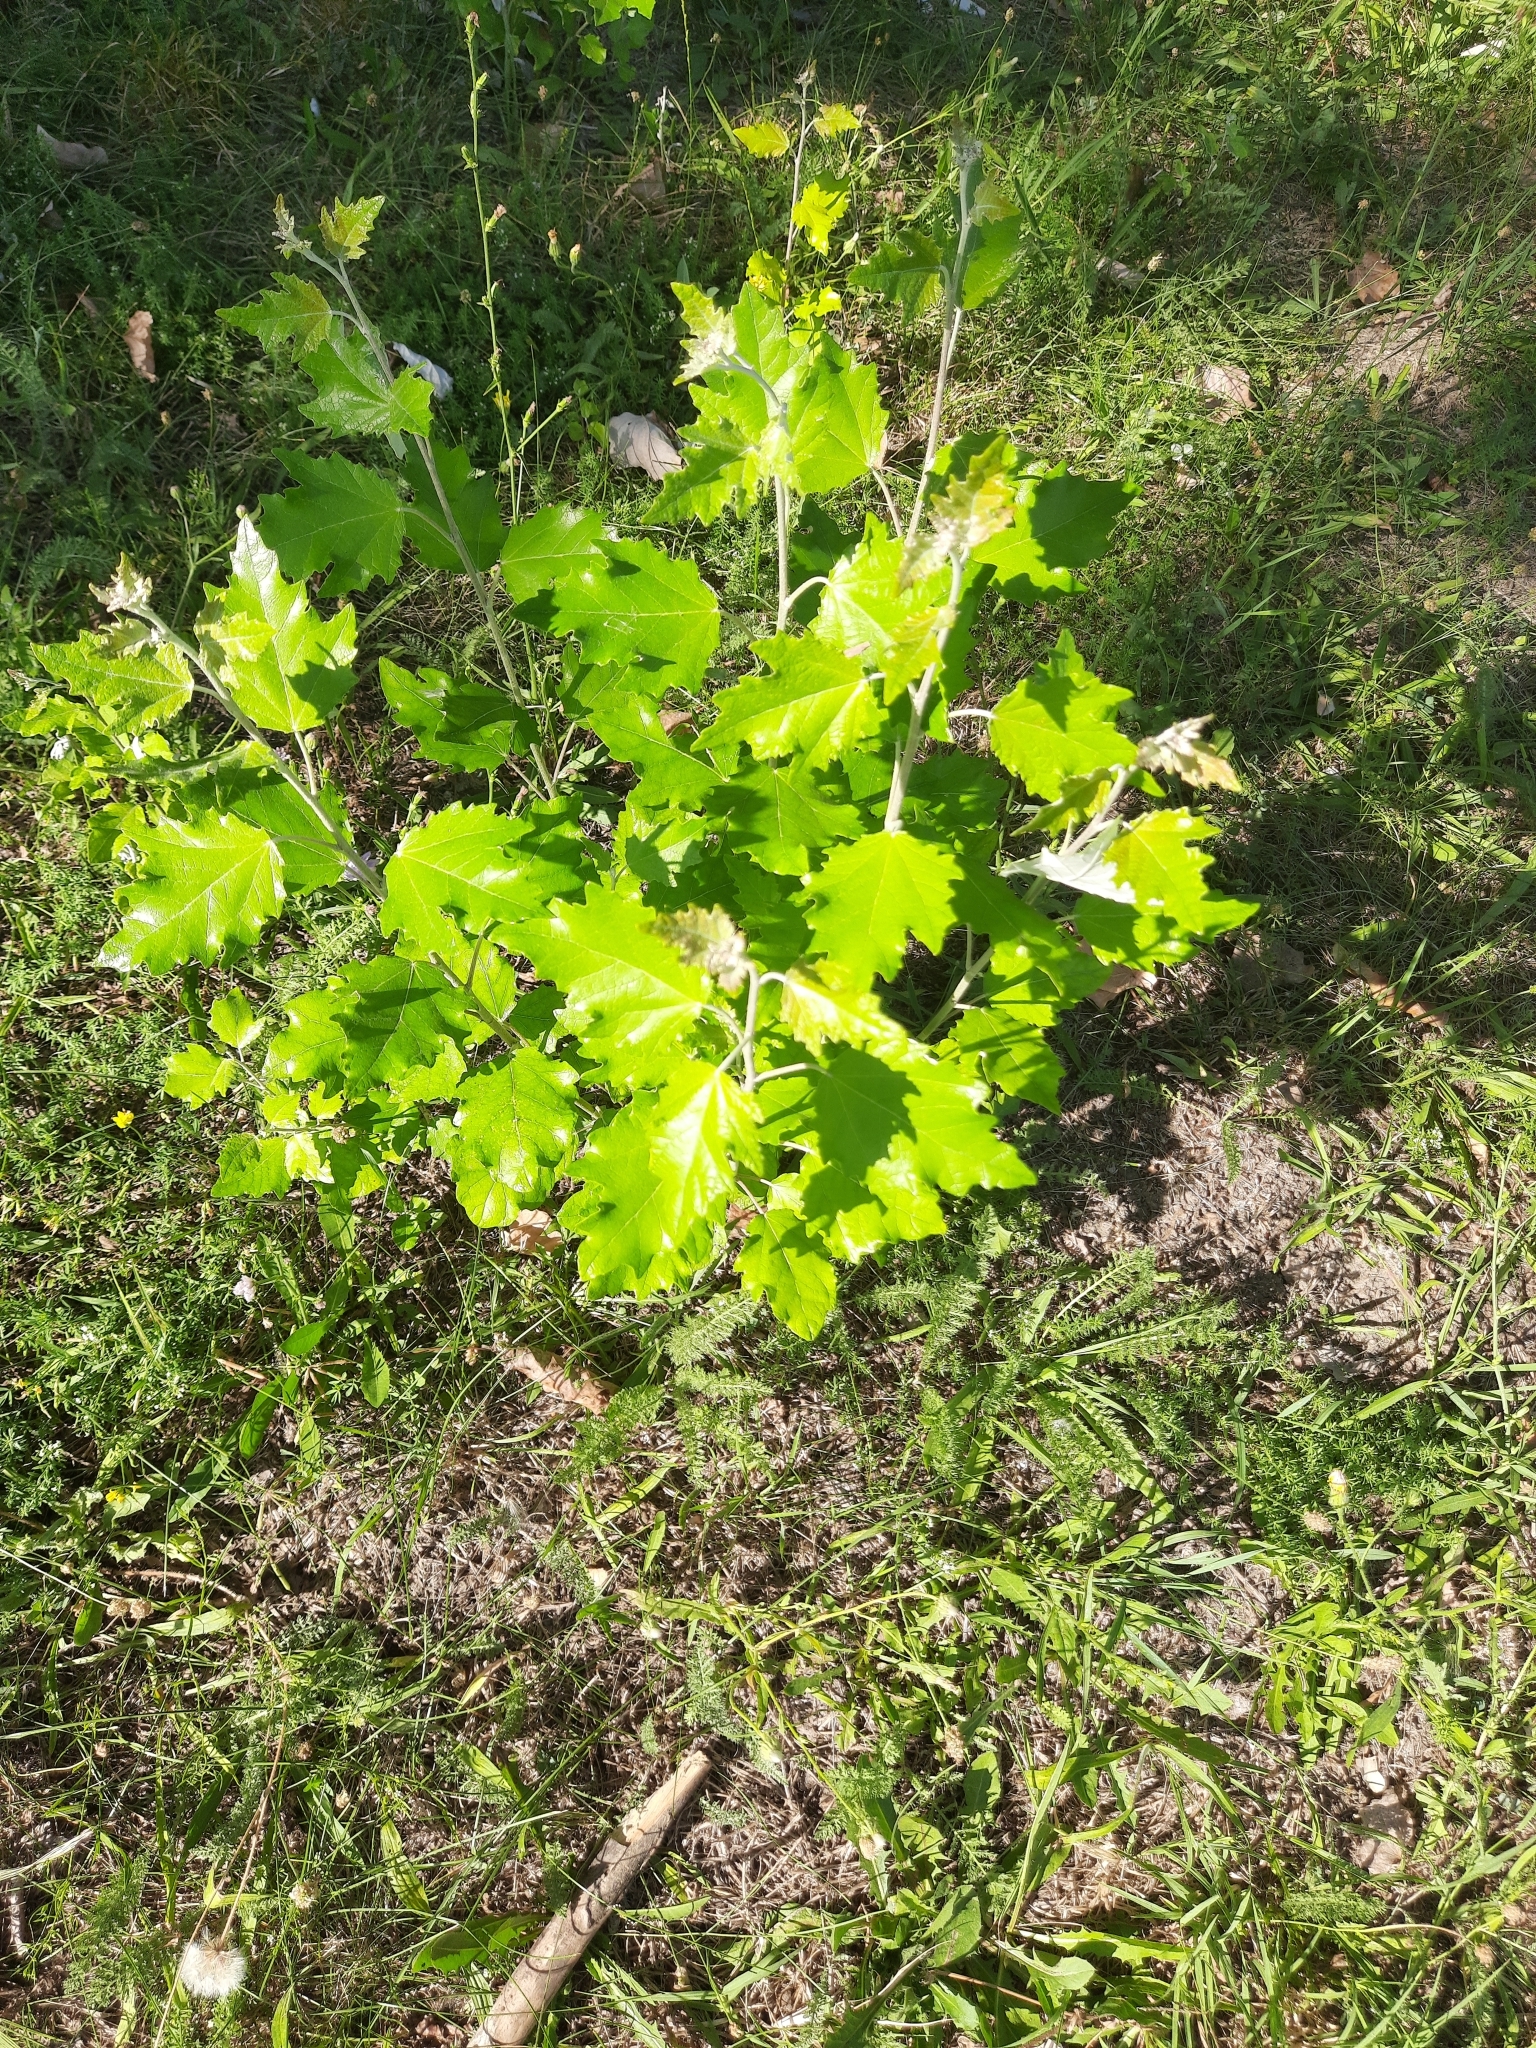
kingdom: Plantae
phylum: Tracheophyta
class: Magnoliopsida
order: Malpighiales
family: Salicaceae
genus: Populus
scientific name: Populus alba
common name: White poplar
